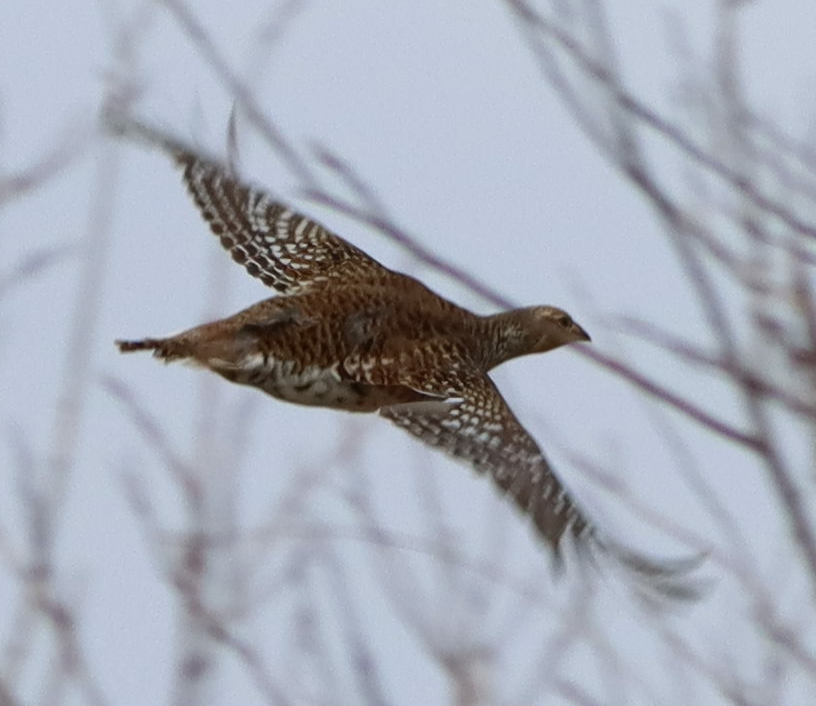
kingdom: Animalia
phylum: Chordata
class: Aves
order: Galliformes
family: Phasianidae
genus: Tympanuchus
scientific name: Tympanuchus phasianellus
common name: Sharp-tailed grouse
